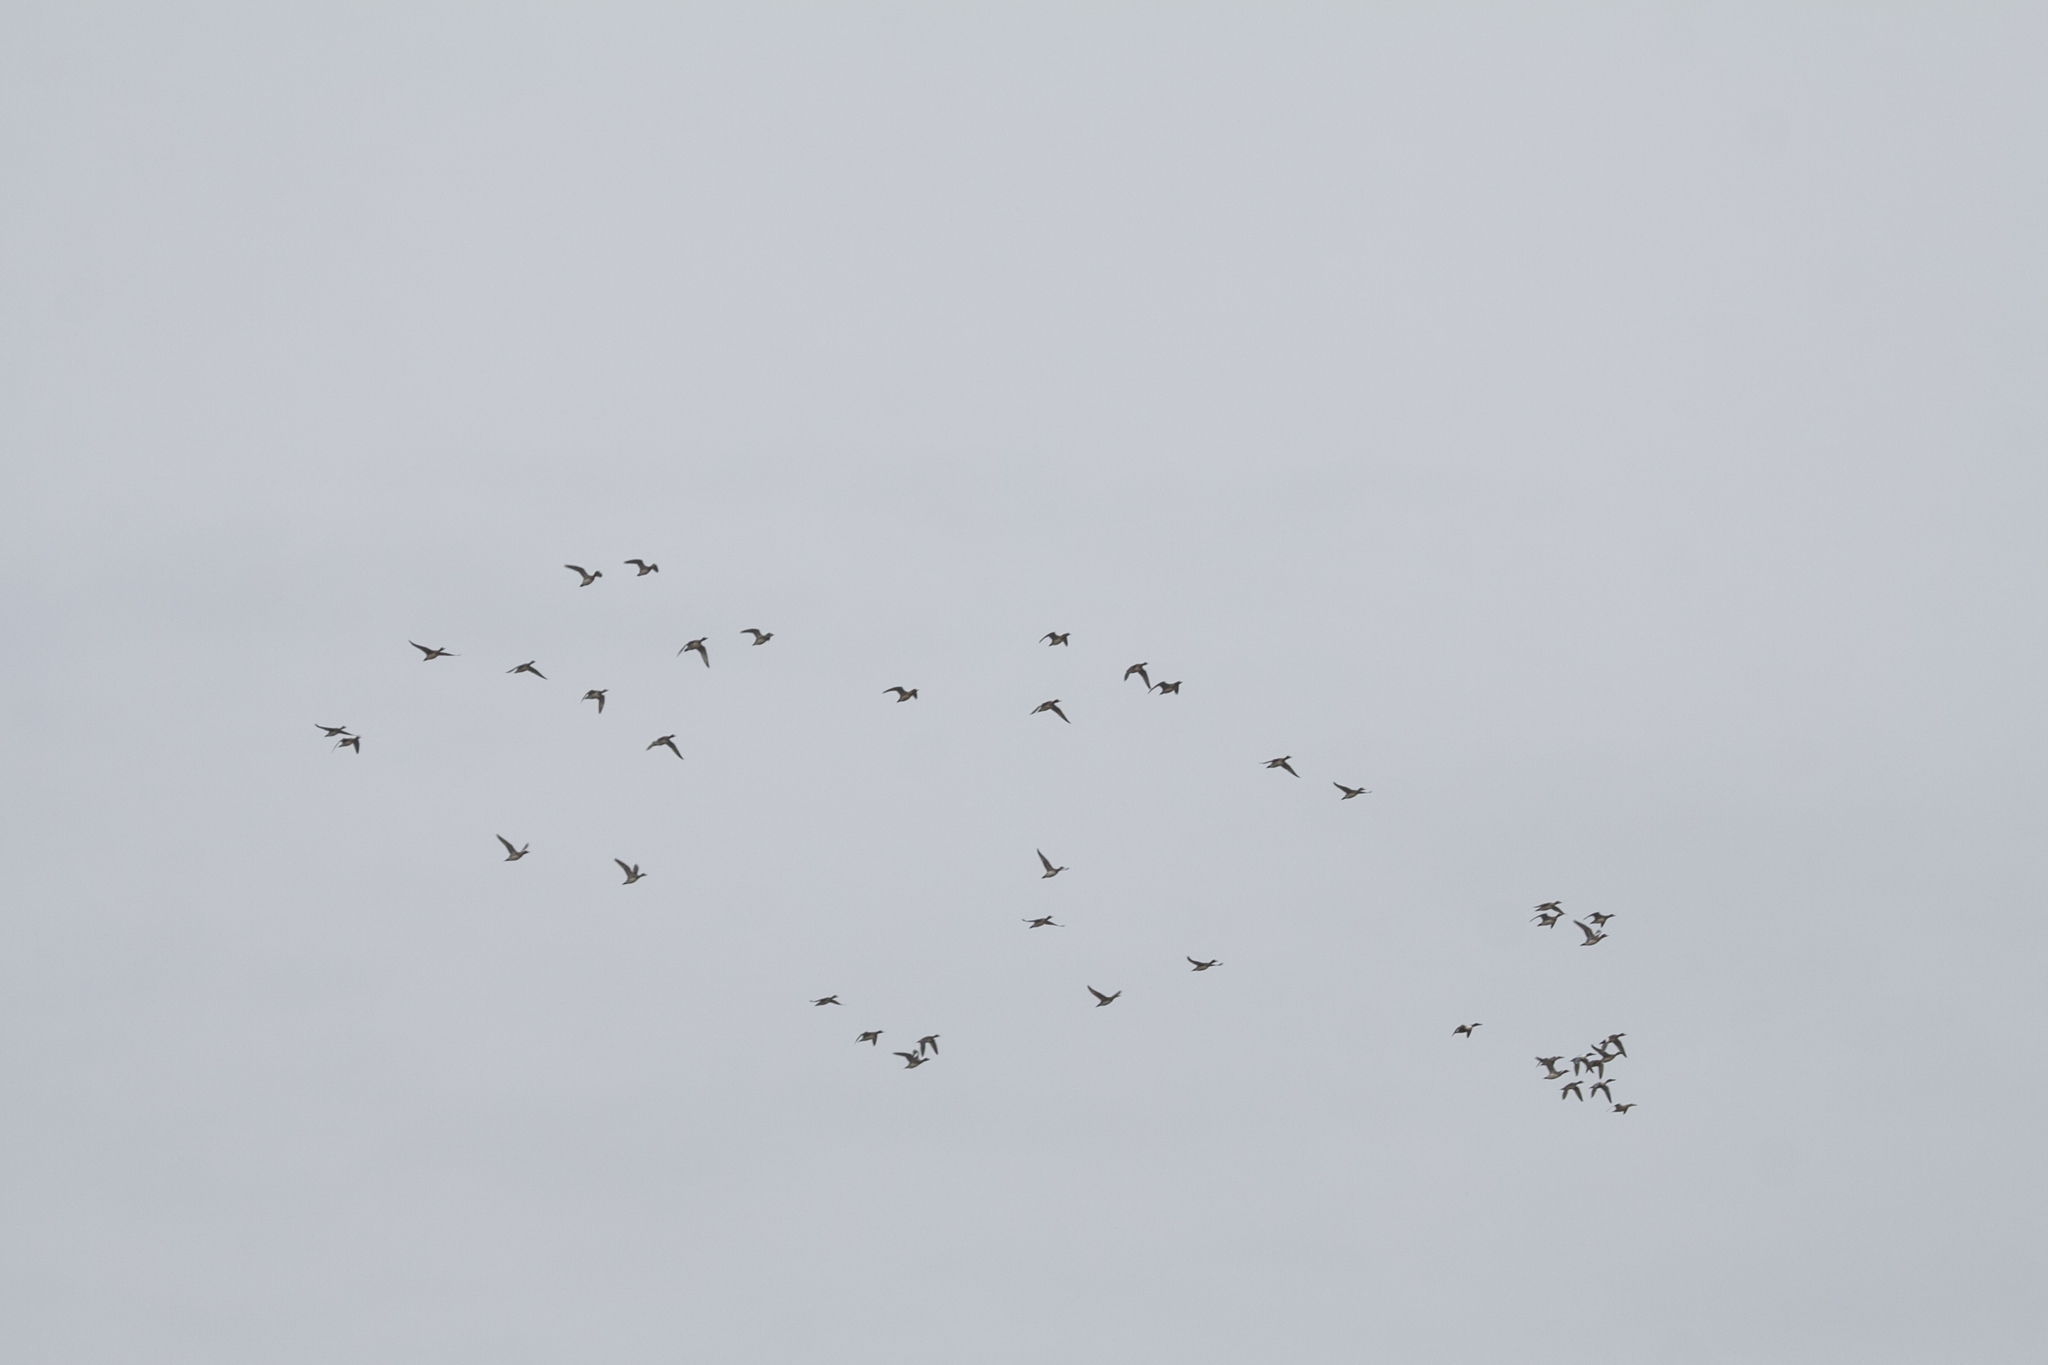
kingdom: Animalia
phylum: Chordata
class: Aves
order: Anseriformes
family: Anatidae
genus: Spatula
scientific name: Spatula clypeata
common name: Northern shoveler
